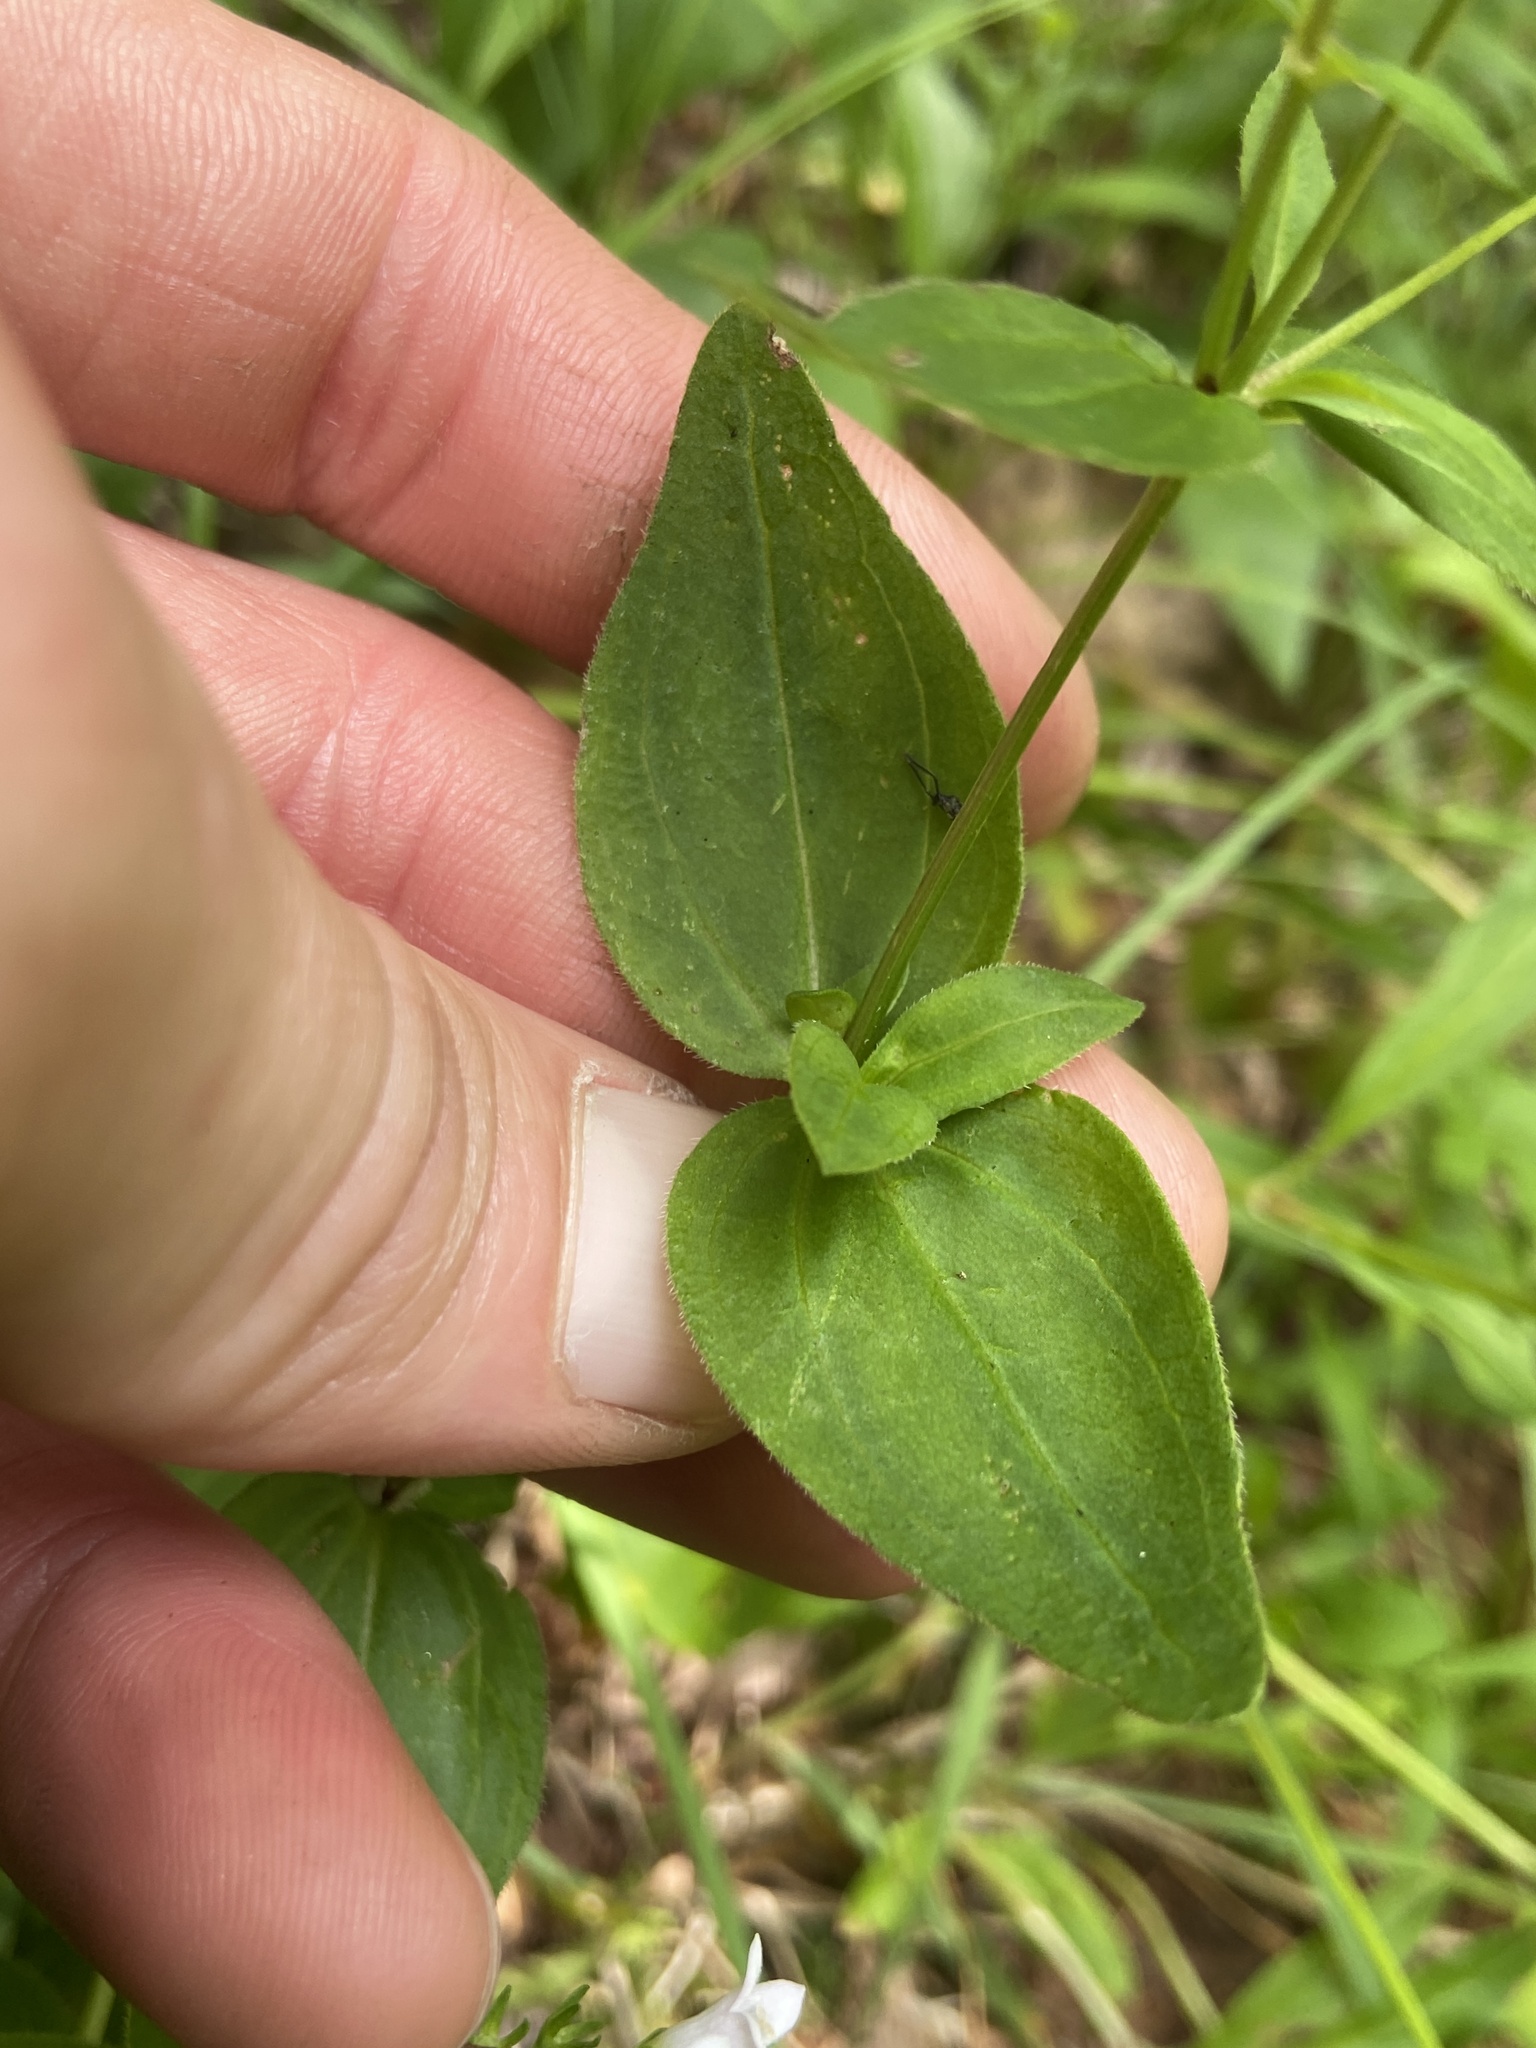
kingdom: Plantae
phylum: Tracheophyta
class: Magnoliopsida
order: Gentianales
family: Rubiaceae
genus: Houstonia
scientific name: Houstonia purpurea
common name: Summer bluet
